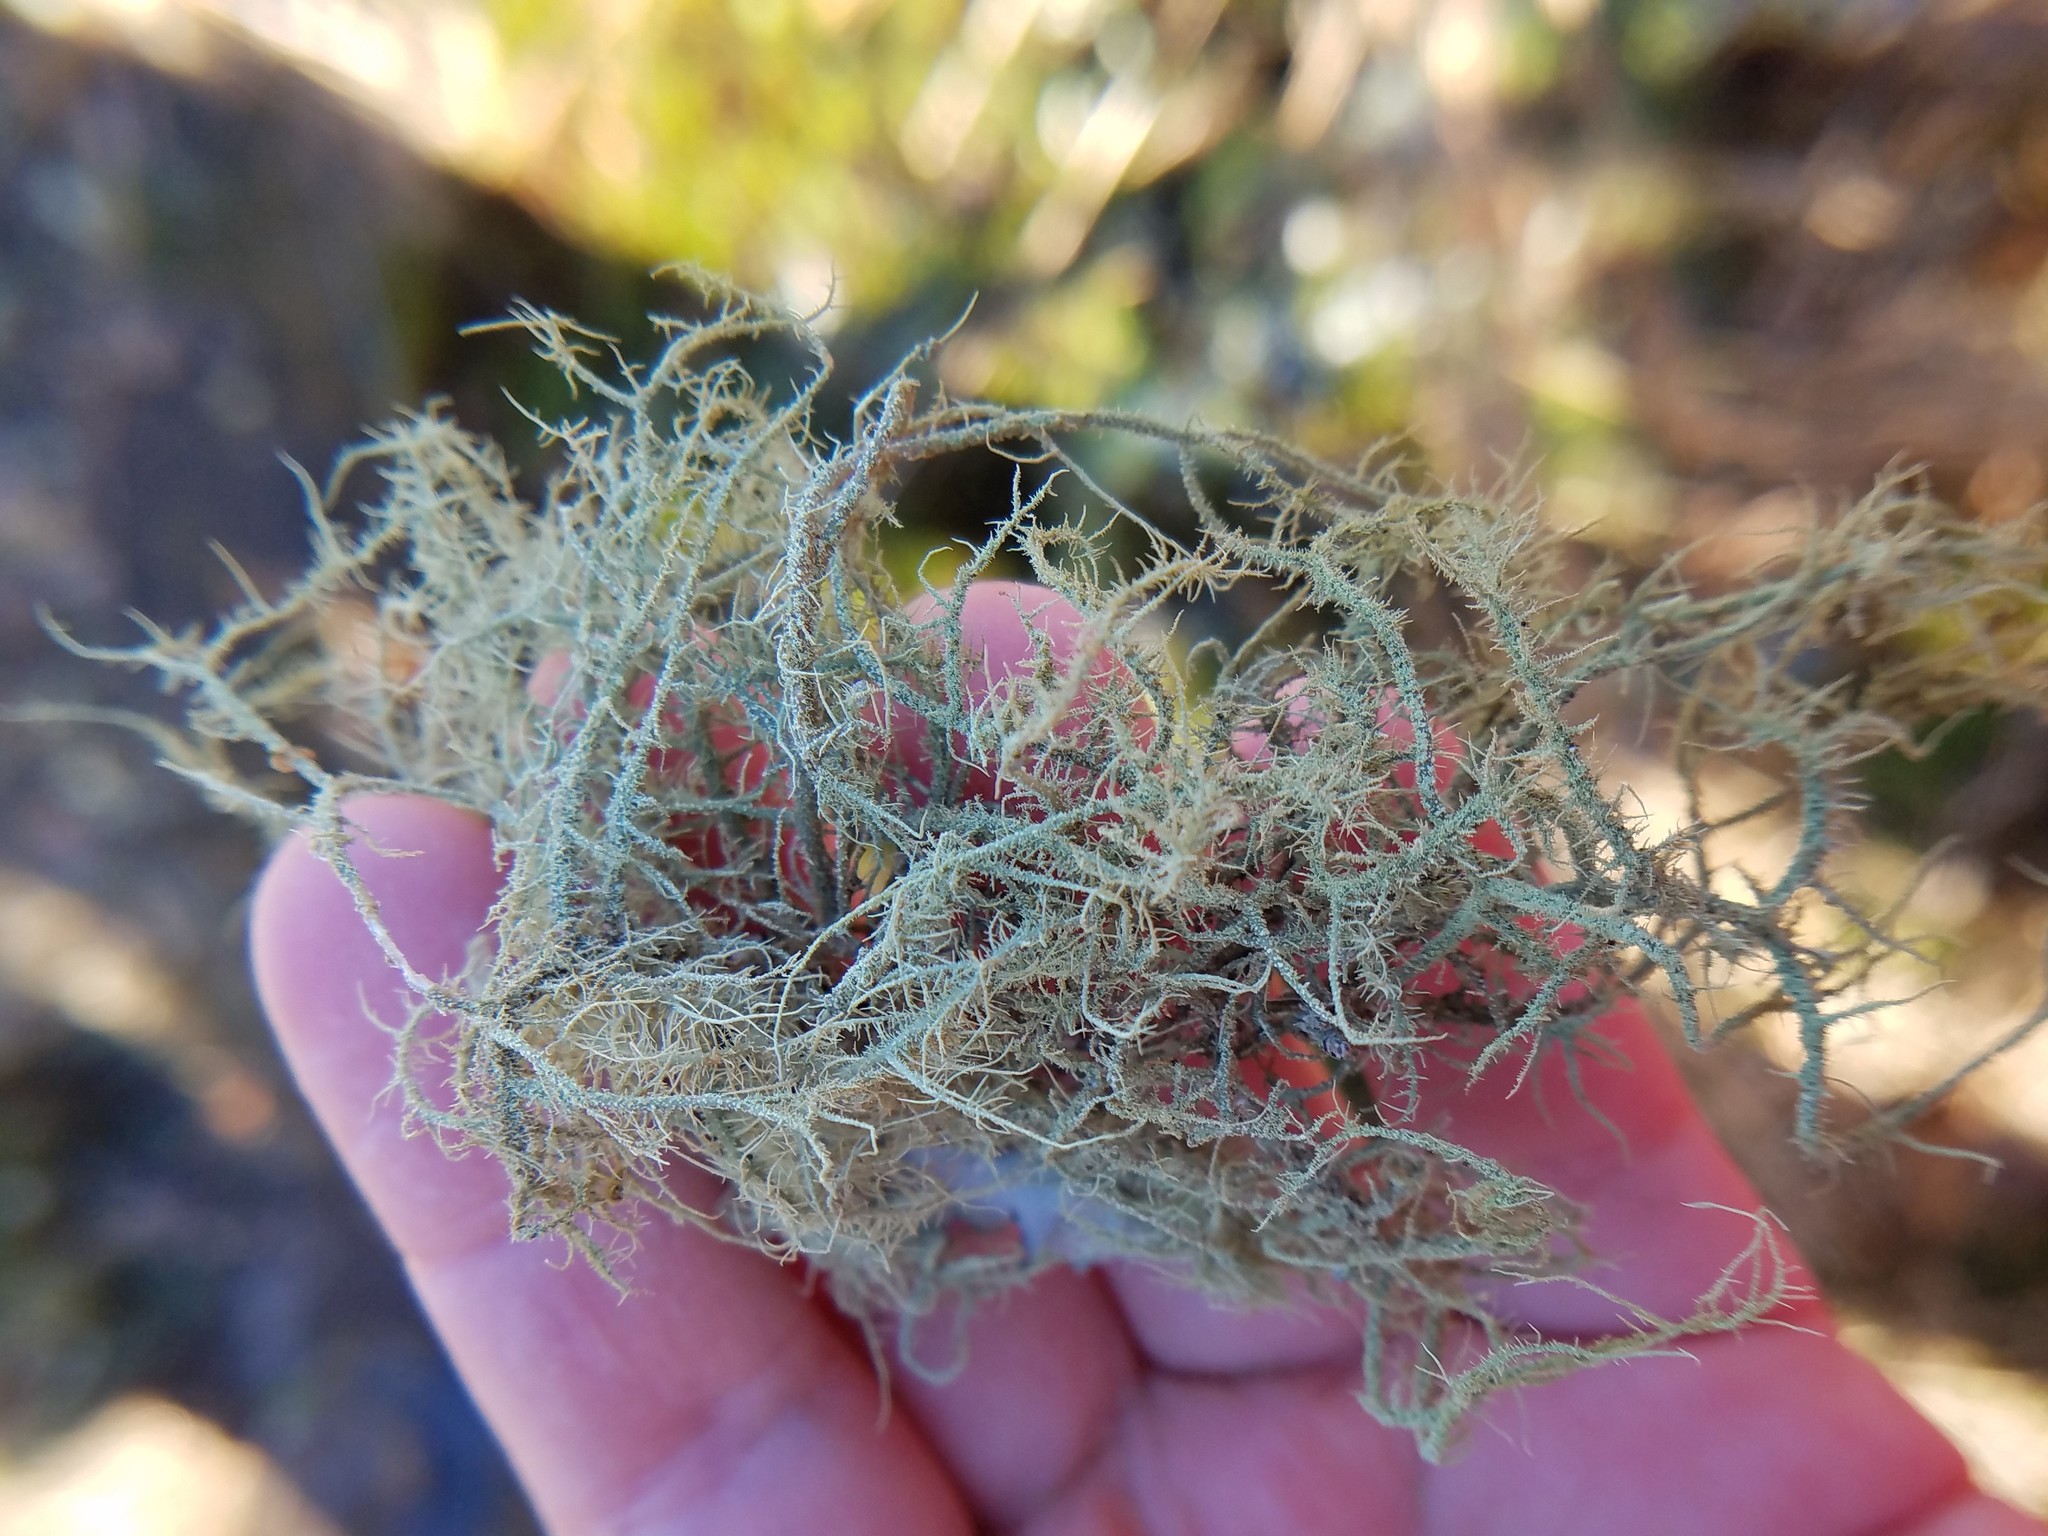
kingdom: Fungi
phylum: Ascomycota
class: Lecanoromycetes
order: Lecanorales
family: Parmeliaceae
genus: Usnea
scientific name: Usnea rubicunda
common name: Red beard lichen
